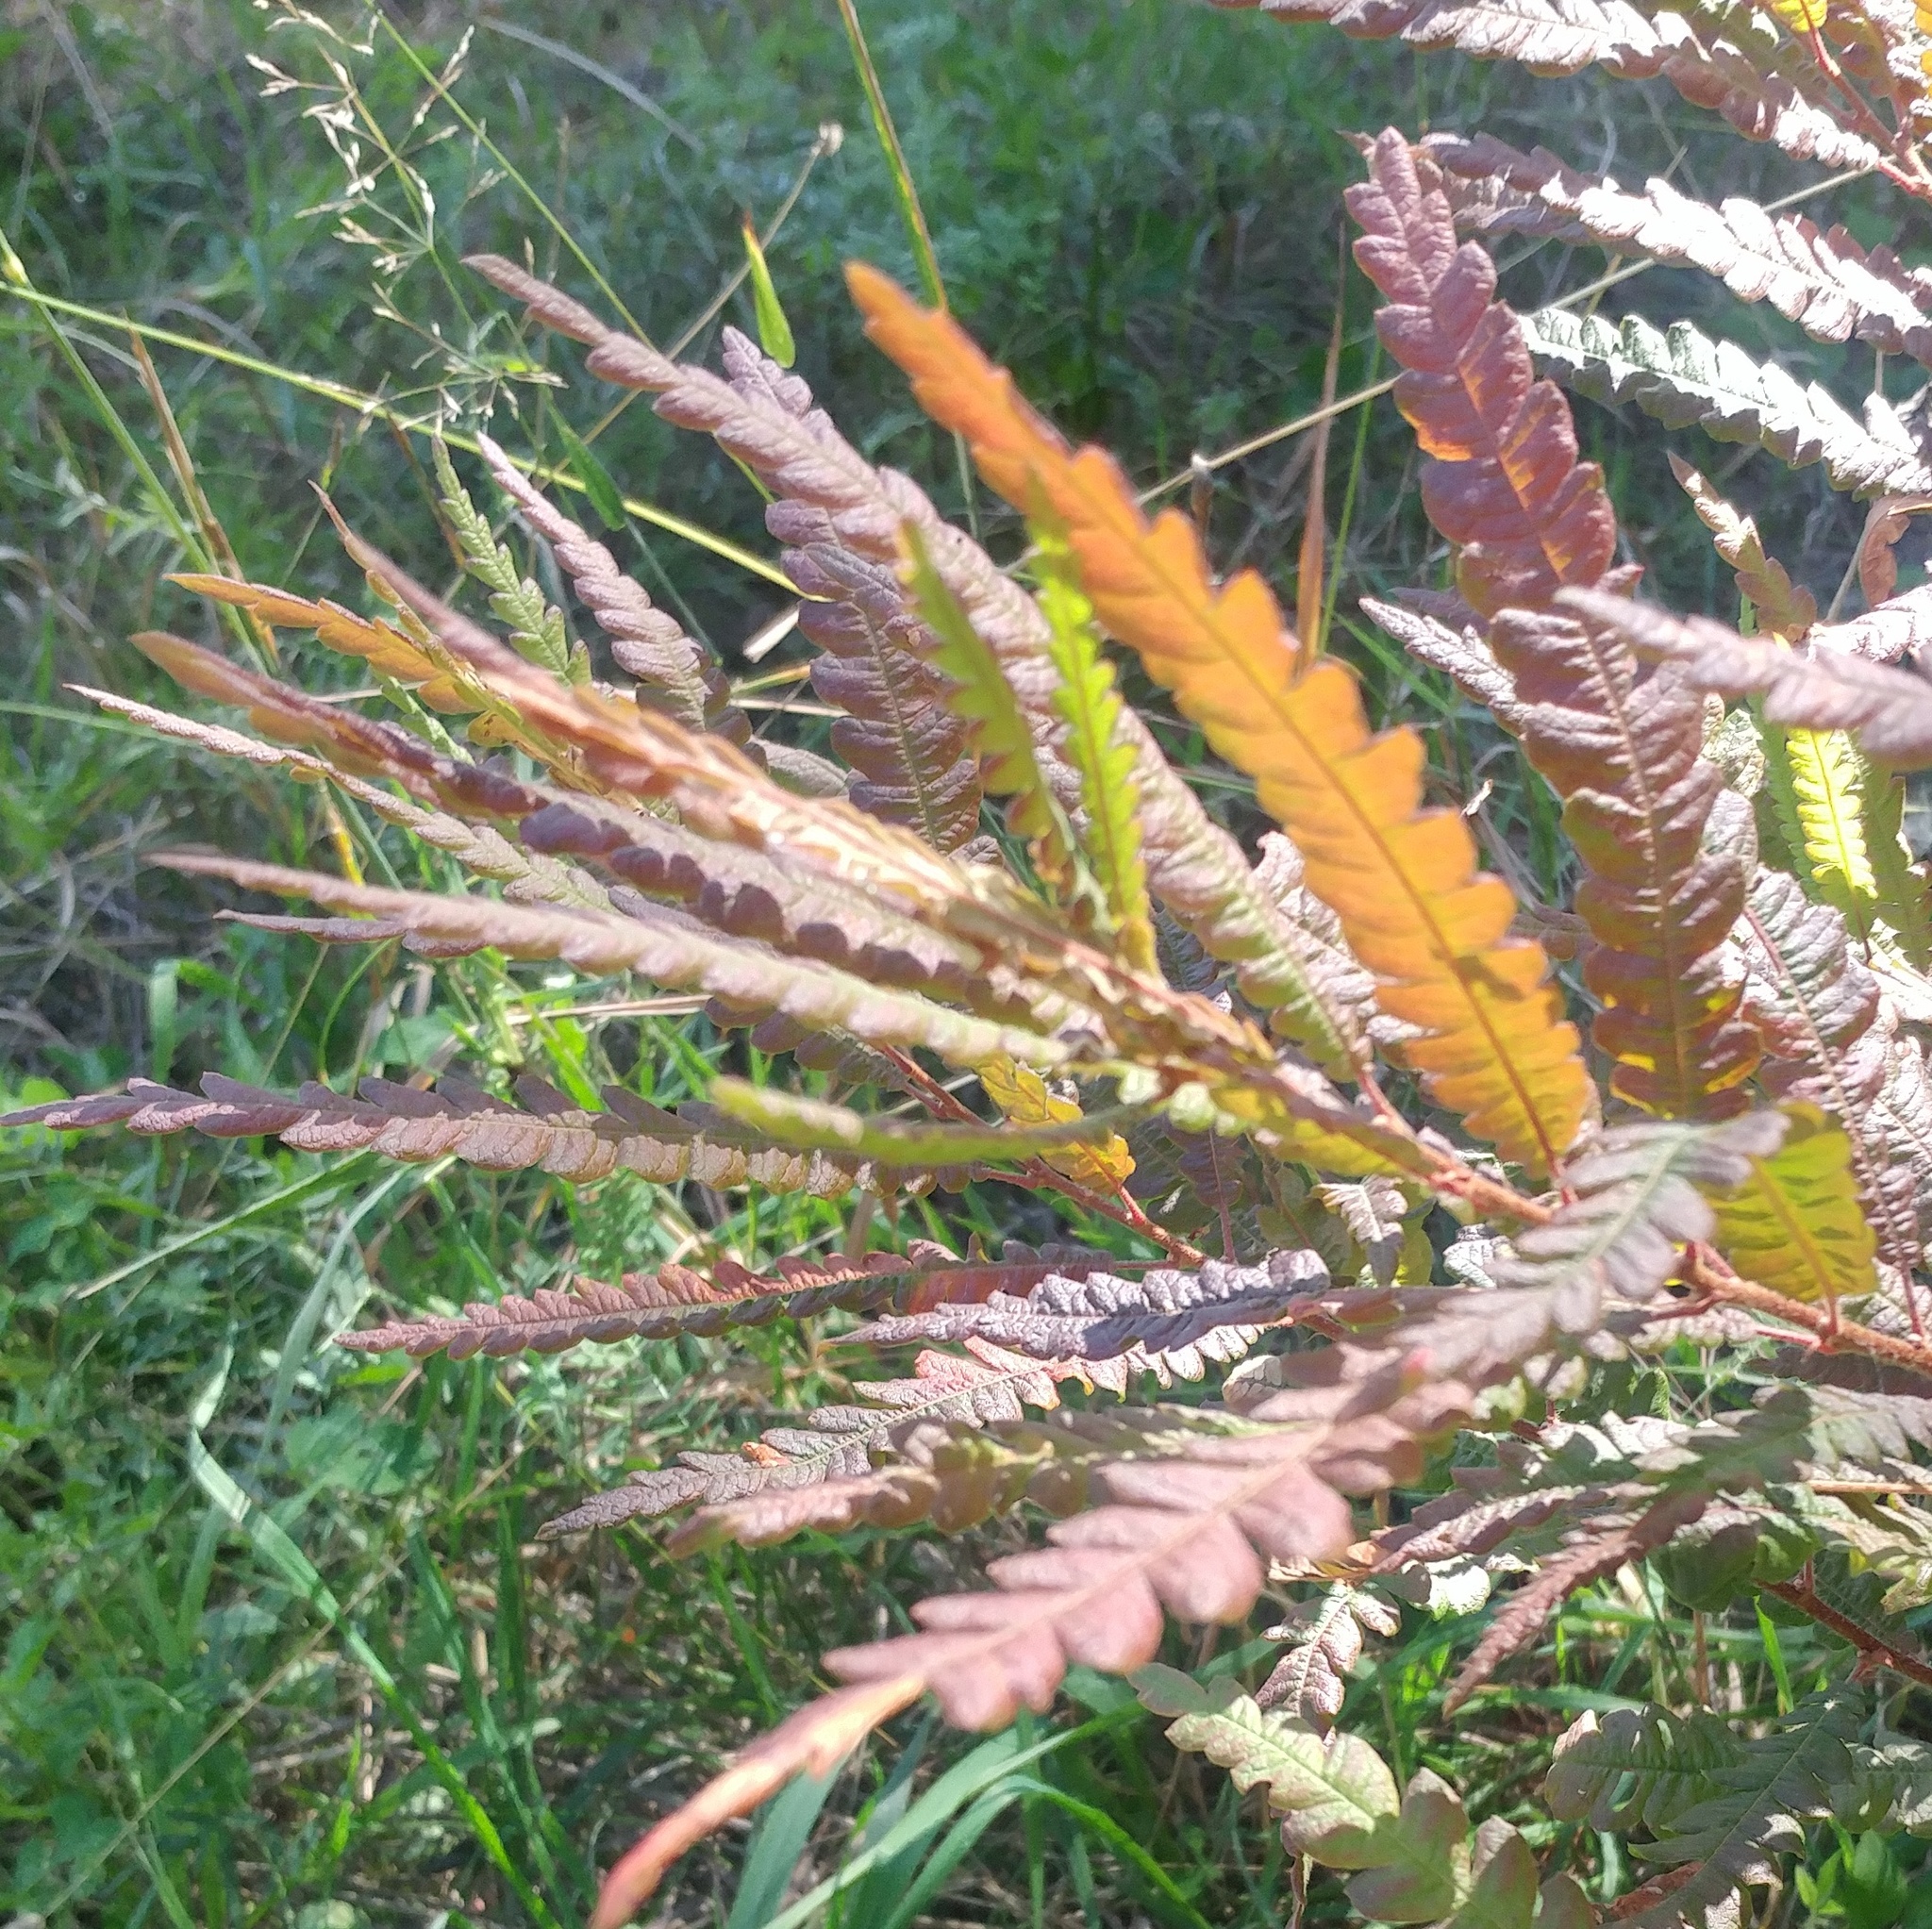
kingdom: Plantae
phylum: Tracheophyta
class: Magnoliopsida
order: Fagales
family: Myricaceae
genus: Comptonia
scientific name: Comptonia peregrina
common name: Sweet-fern
